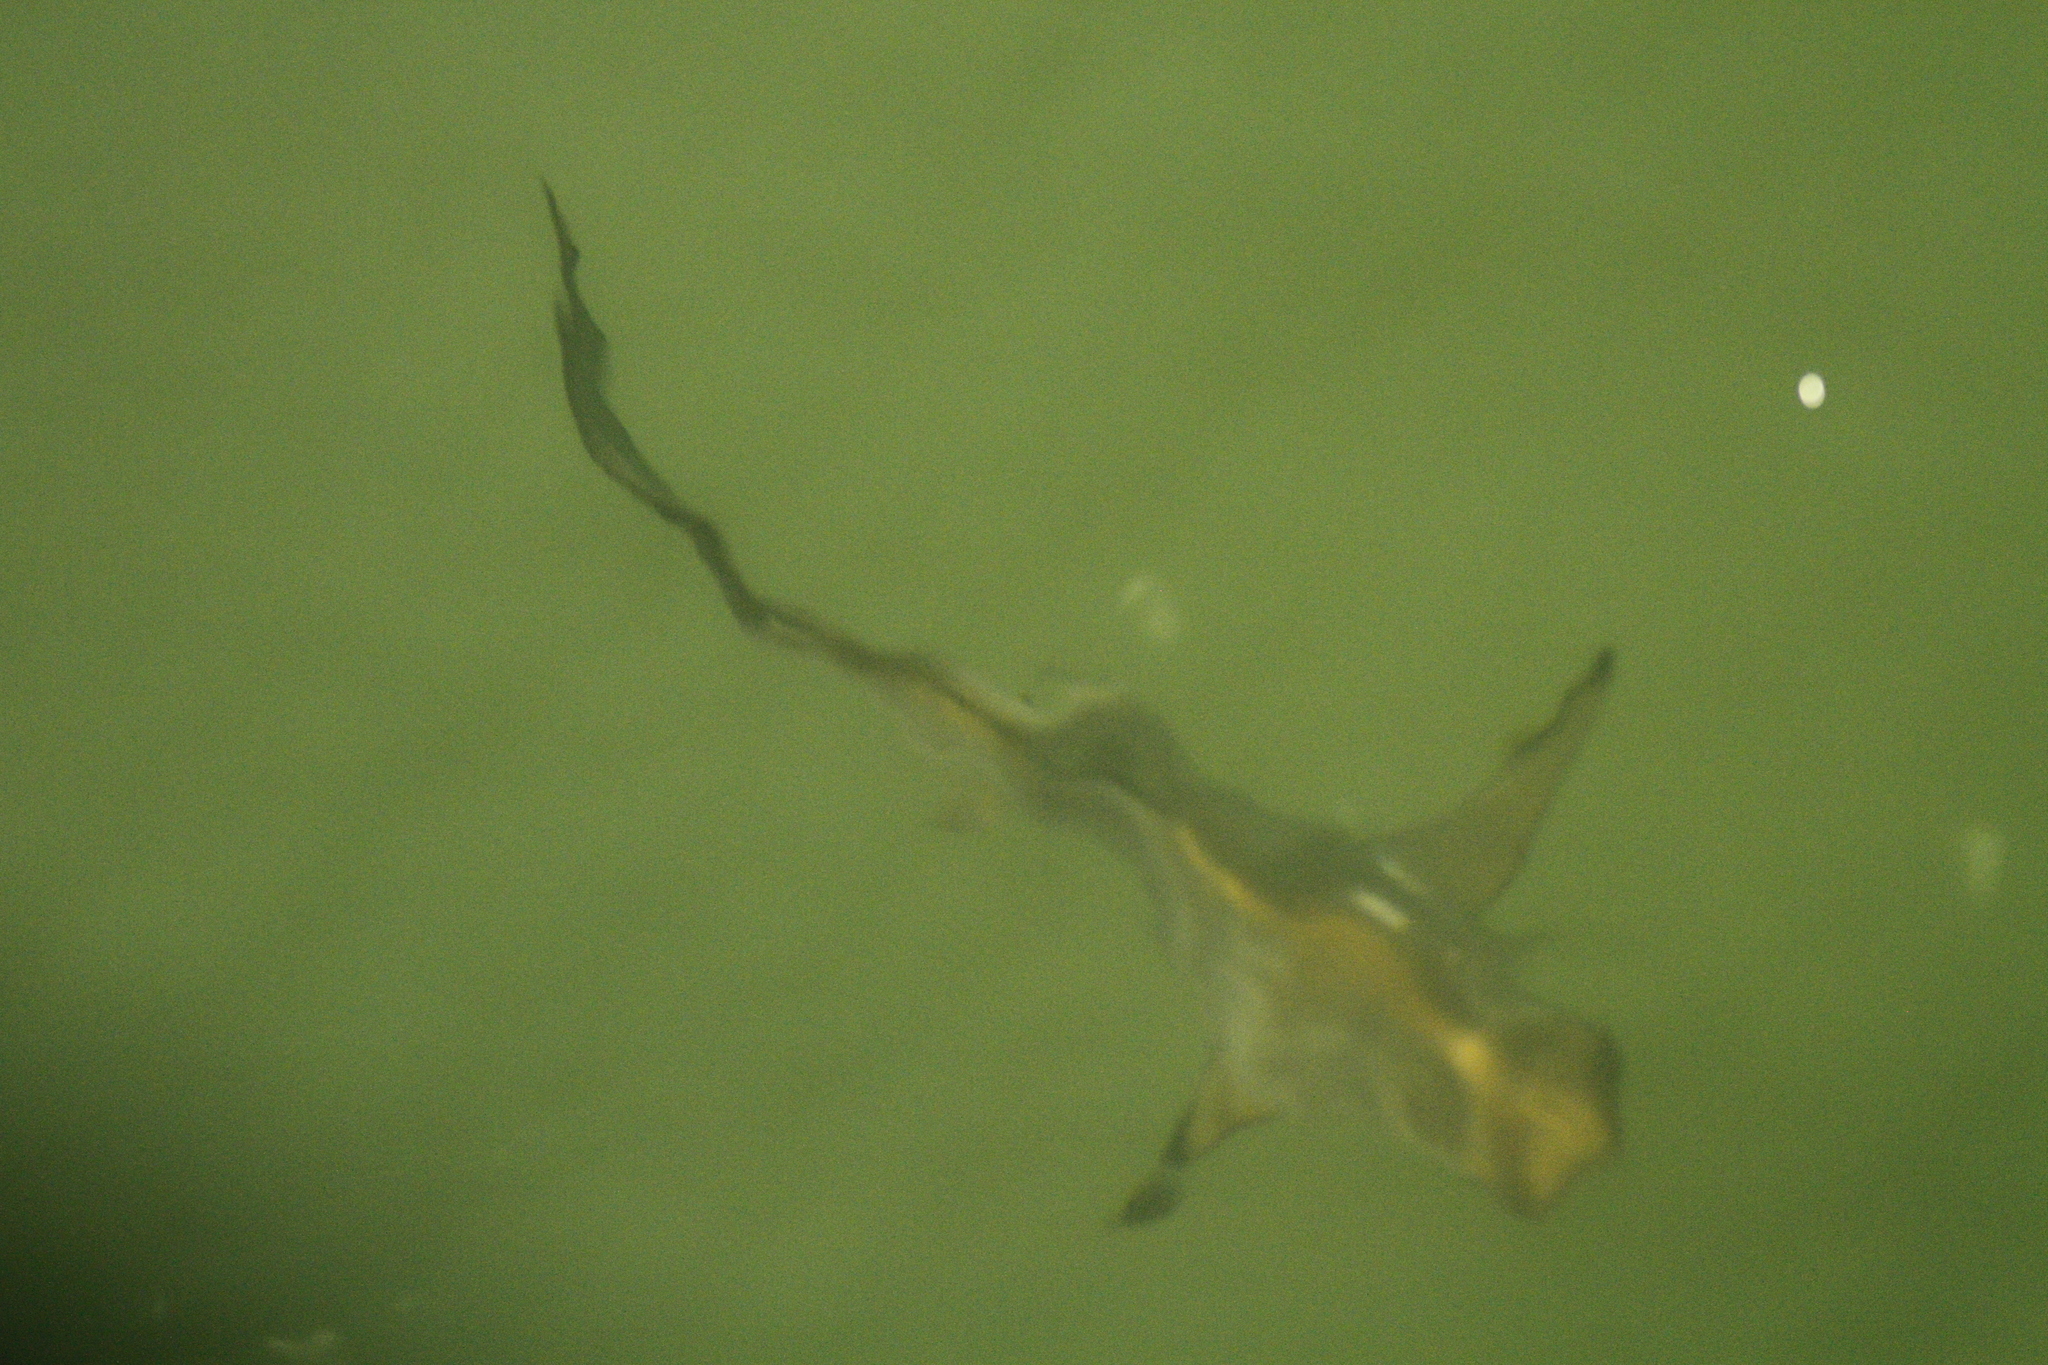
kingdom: Animalia
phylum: Chordata
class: Elasmobranchii
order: Carcharhiniformes
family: Carcharhinidae
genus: Carcharhinus
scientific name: Carcharhinus limbatus
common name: Blacktip shark
